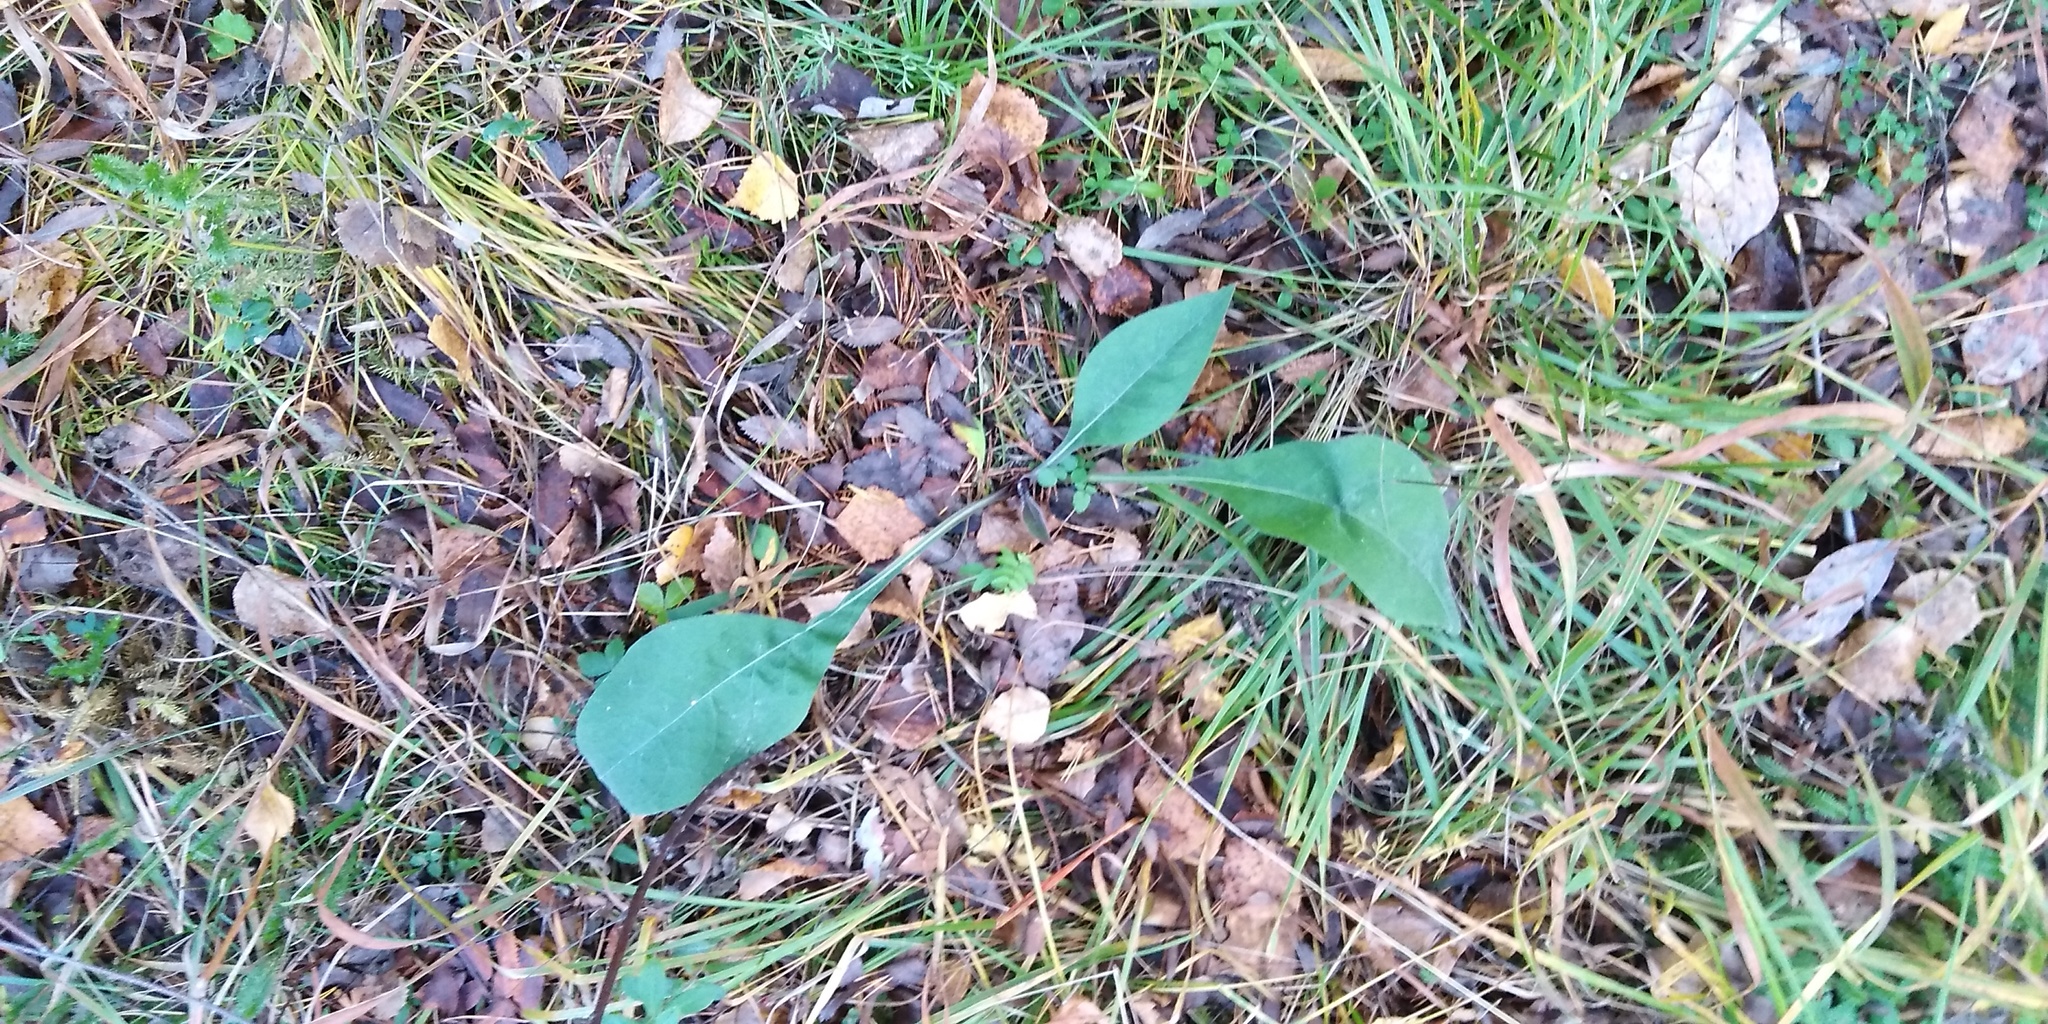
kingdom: Plantae
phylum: Tracheophyta
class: Magnoliopsida
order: Boraginales
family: Boraginaceae
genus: Pulmonaria
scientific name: Pulmonaria mollis
